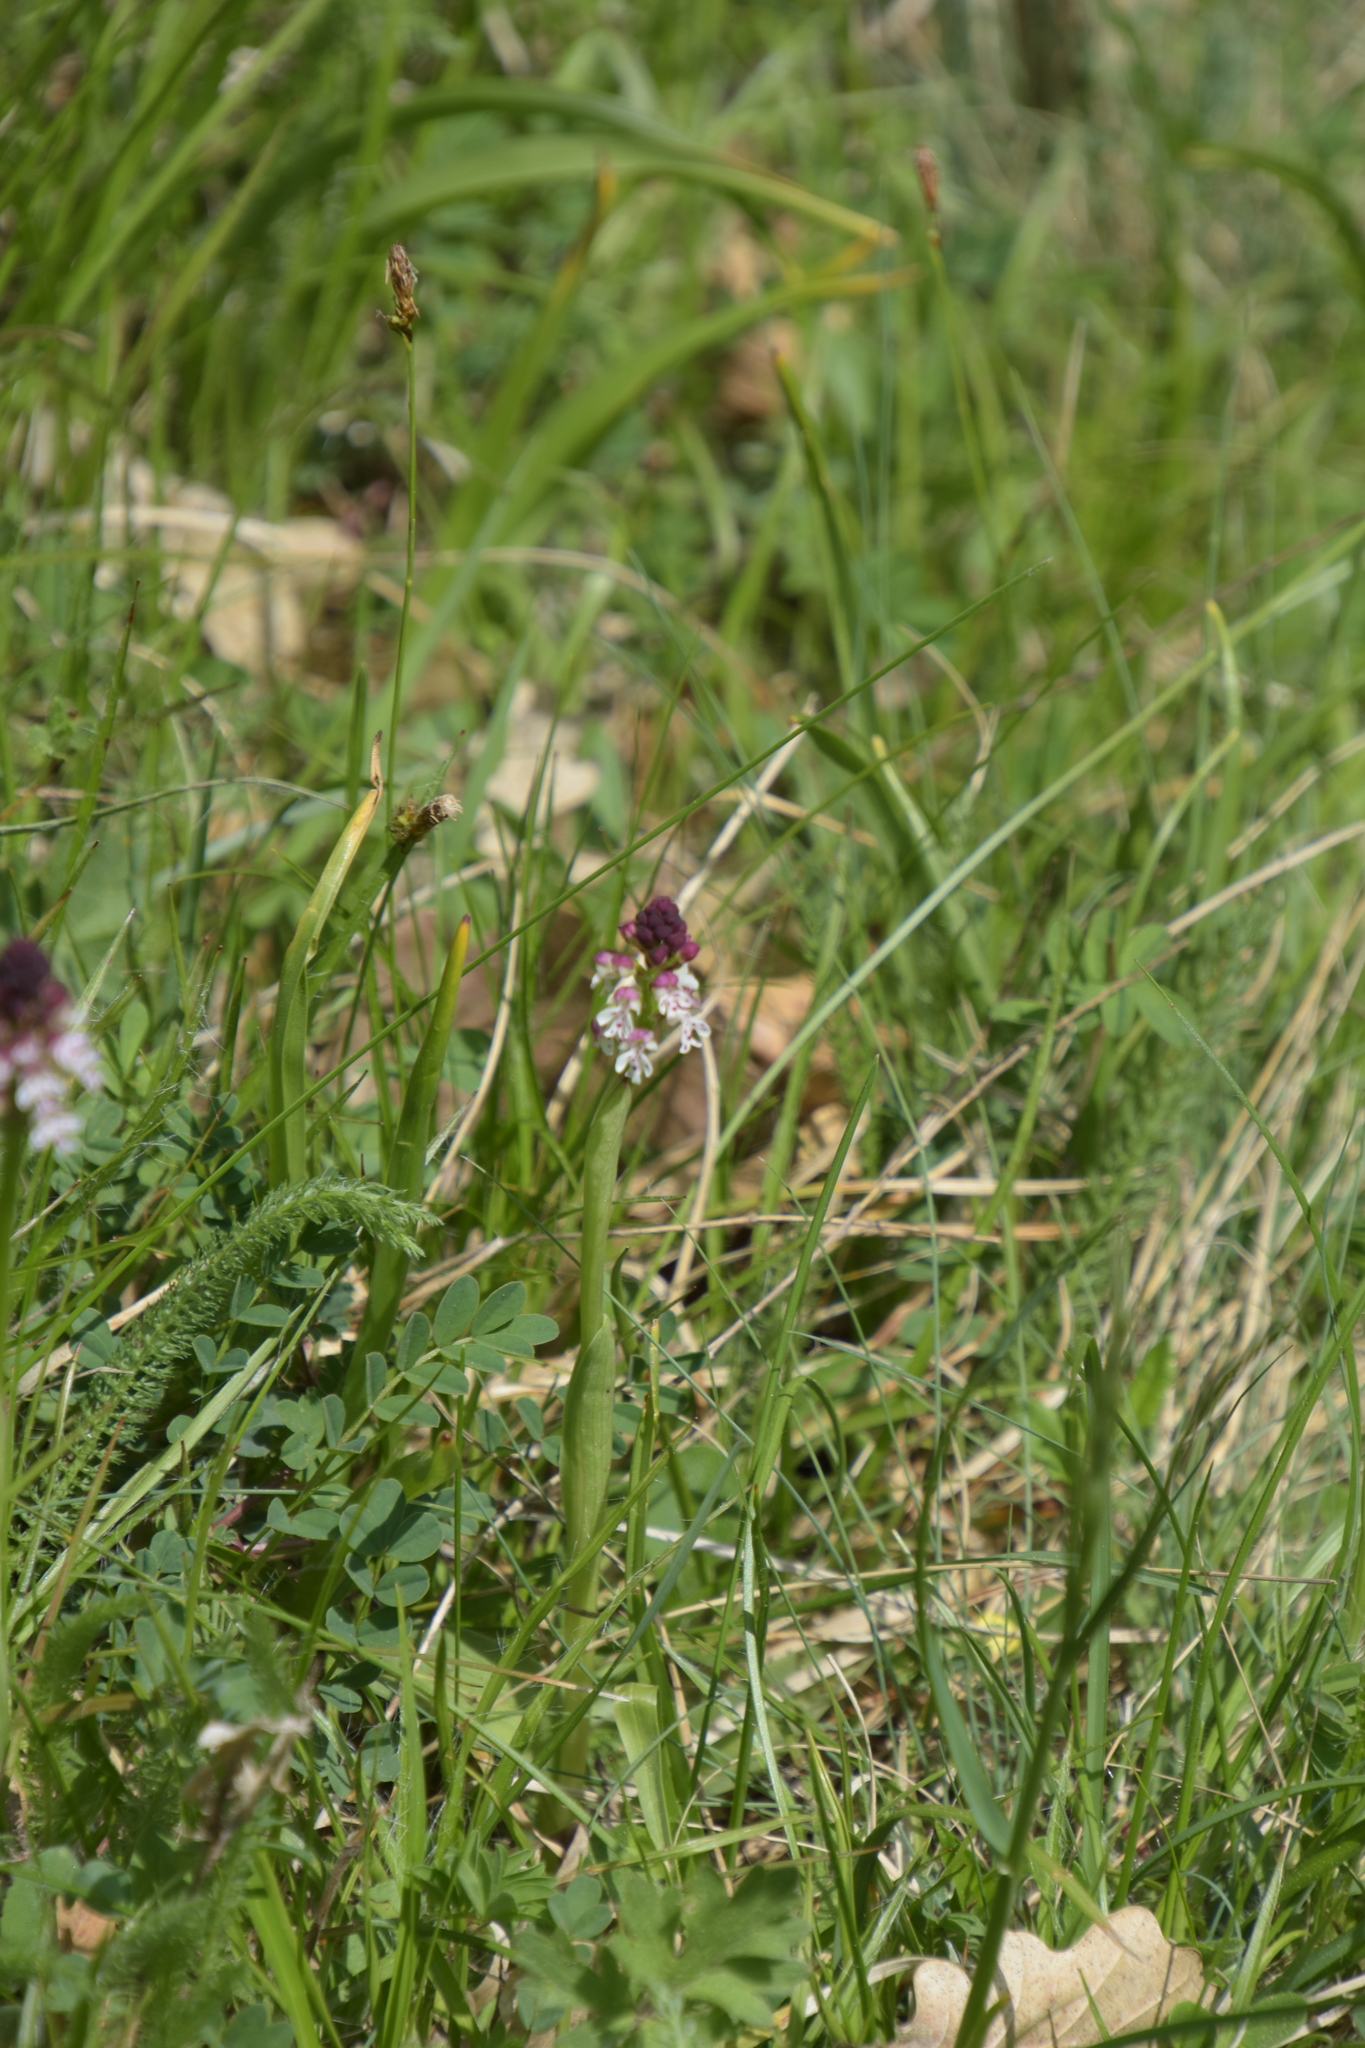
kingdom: Plantae
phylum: Tracheophyta
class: Liliopsida
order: Asparagales
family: Orchidaceae
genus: Neotinea
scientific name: Neotinea ustulata
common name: Burnt orchid
